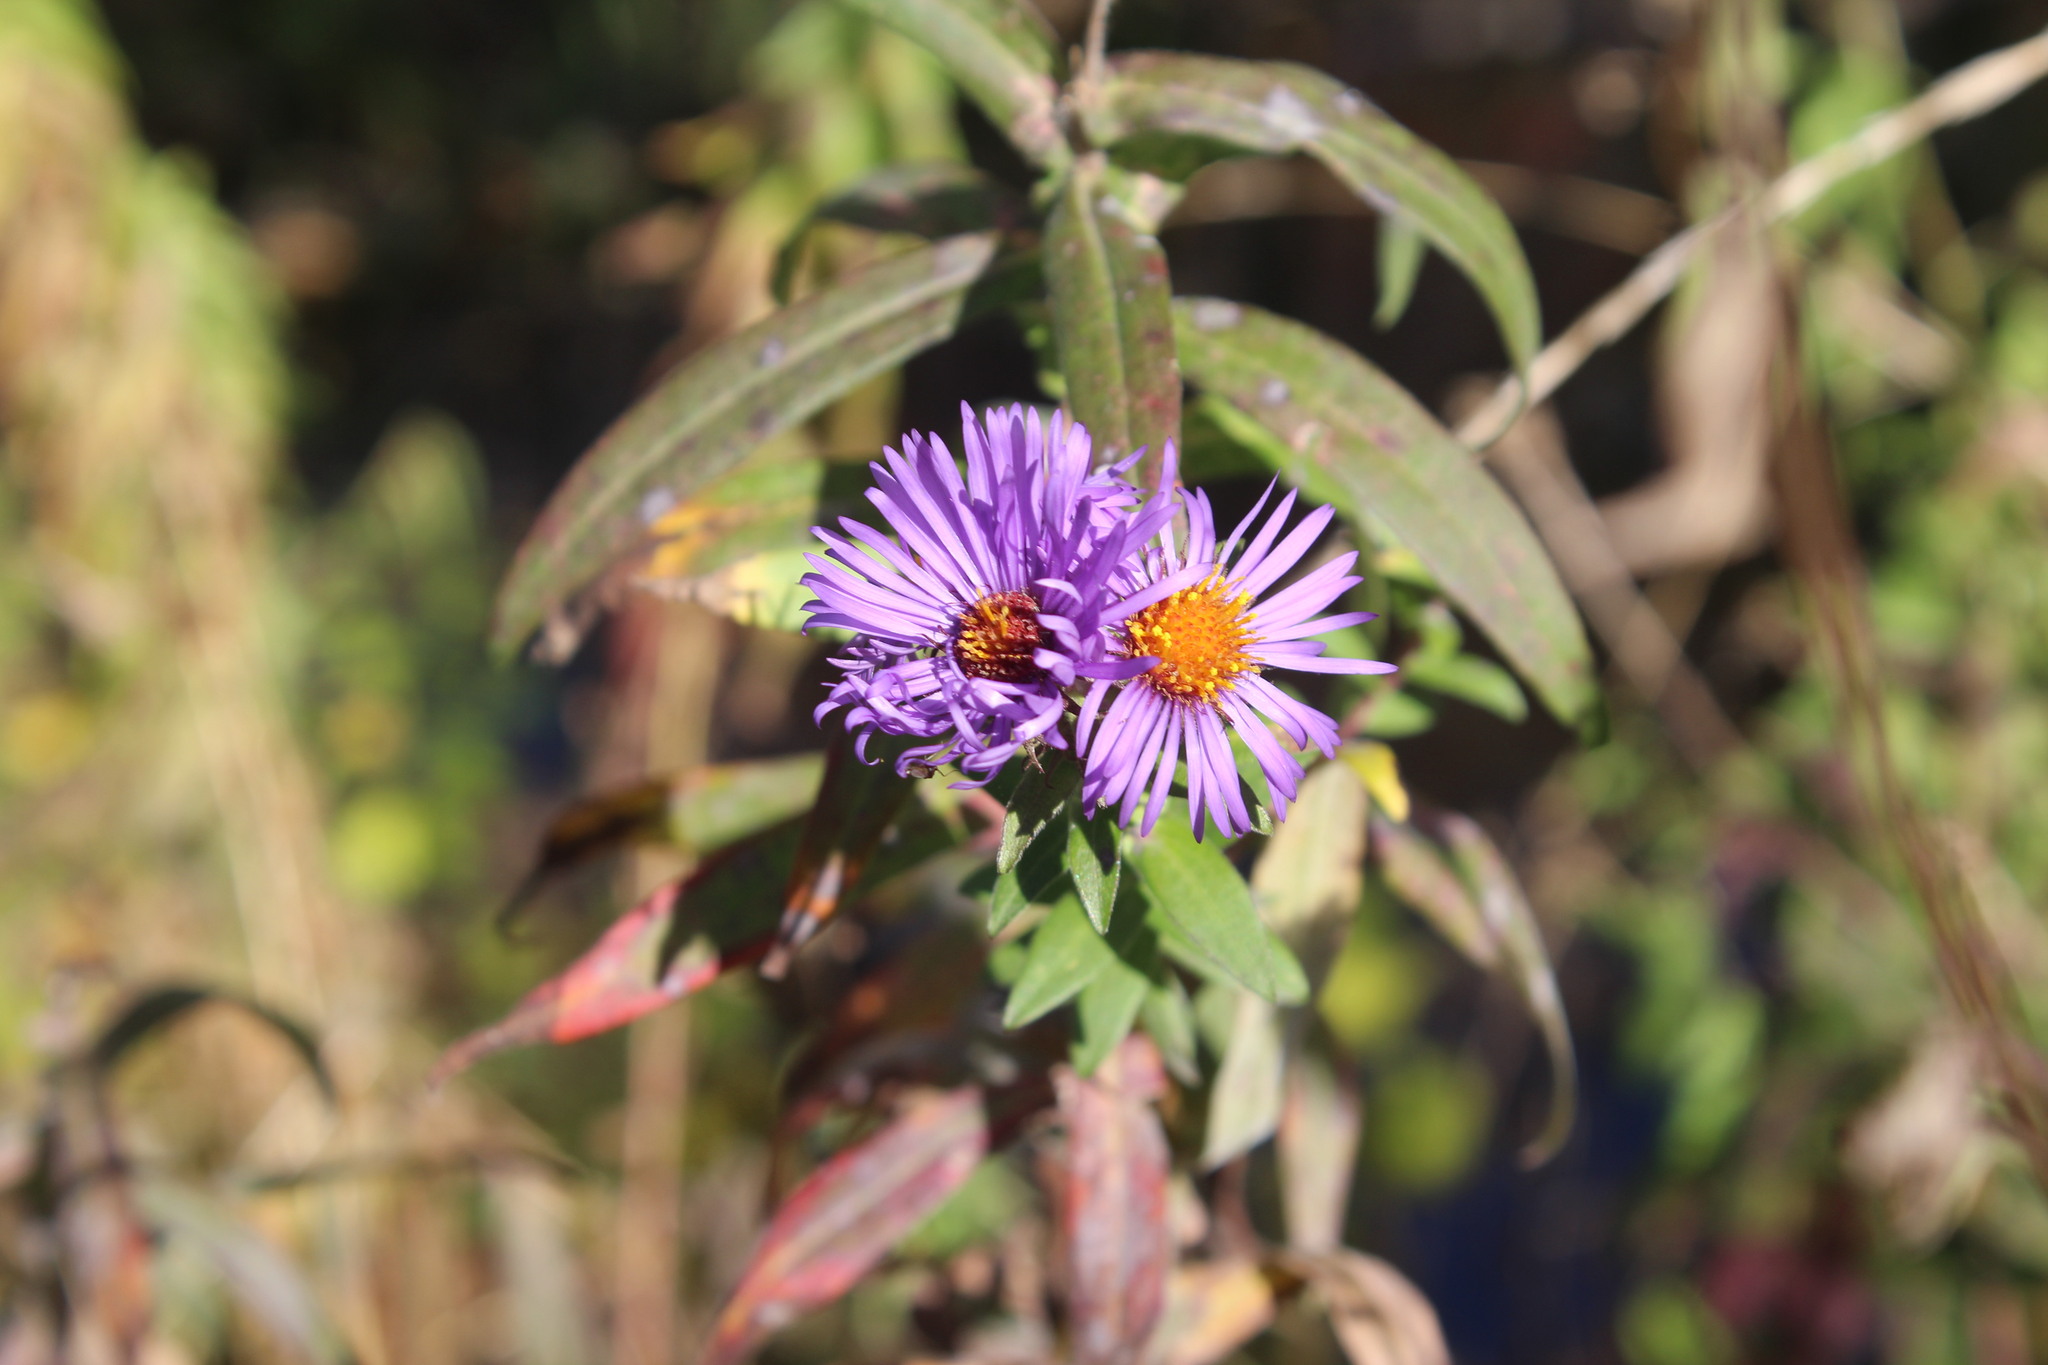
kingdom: Plantae
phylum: Tracheophyta
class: Magnoliopsida
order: Asterales
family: Asteraceae
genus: Symphyotrichum
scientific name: Symphyotrichum novae-angliae
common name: Michaelmas daisy
